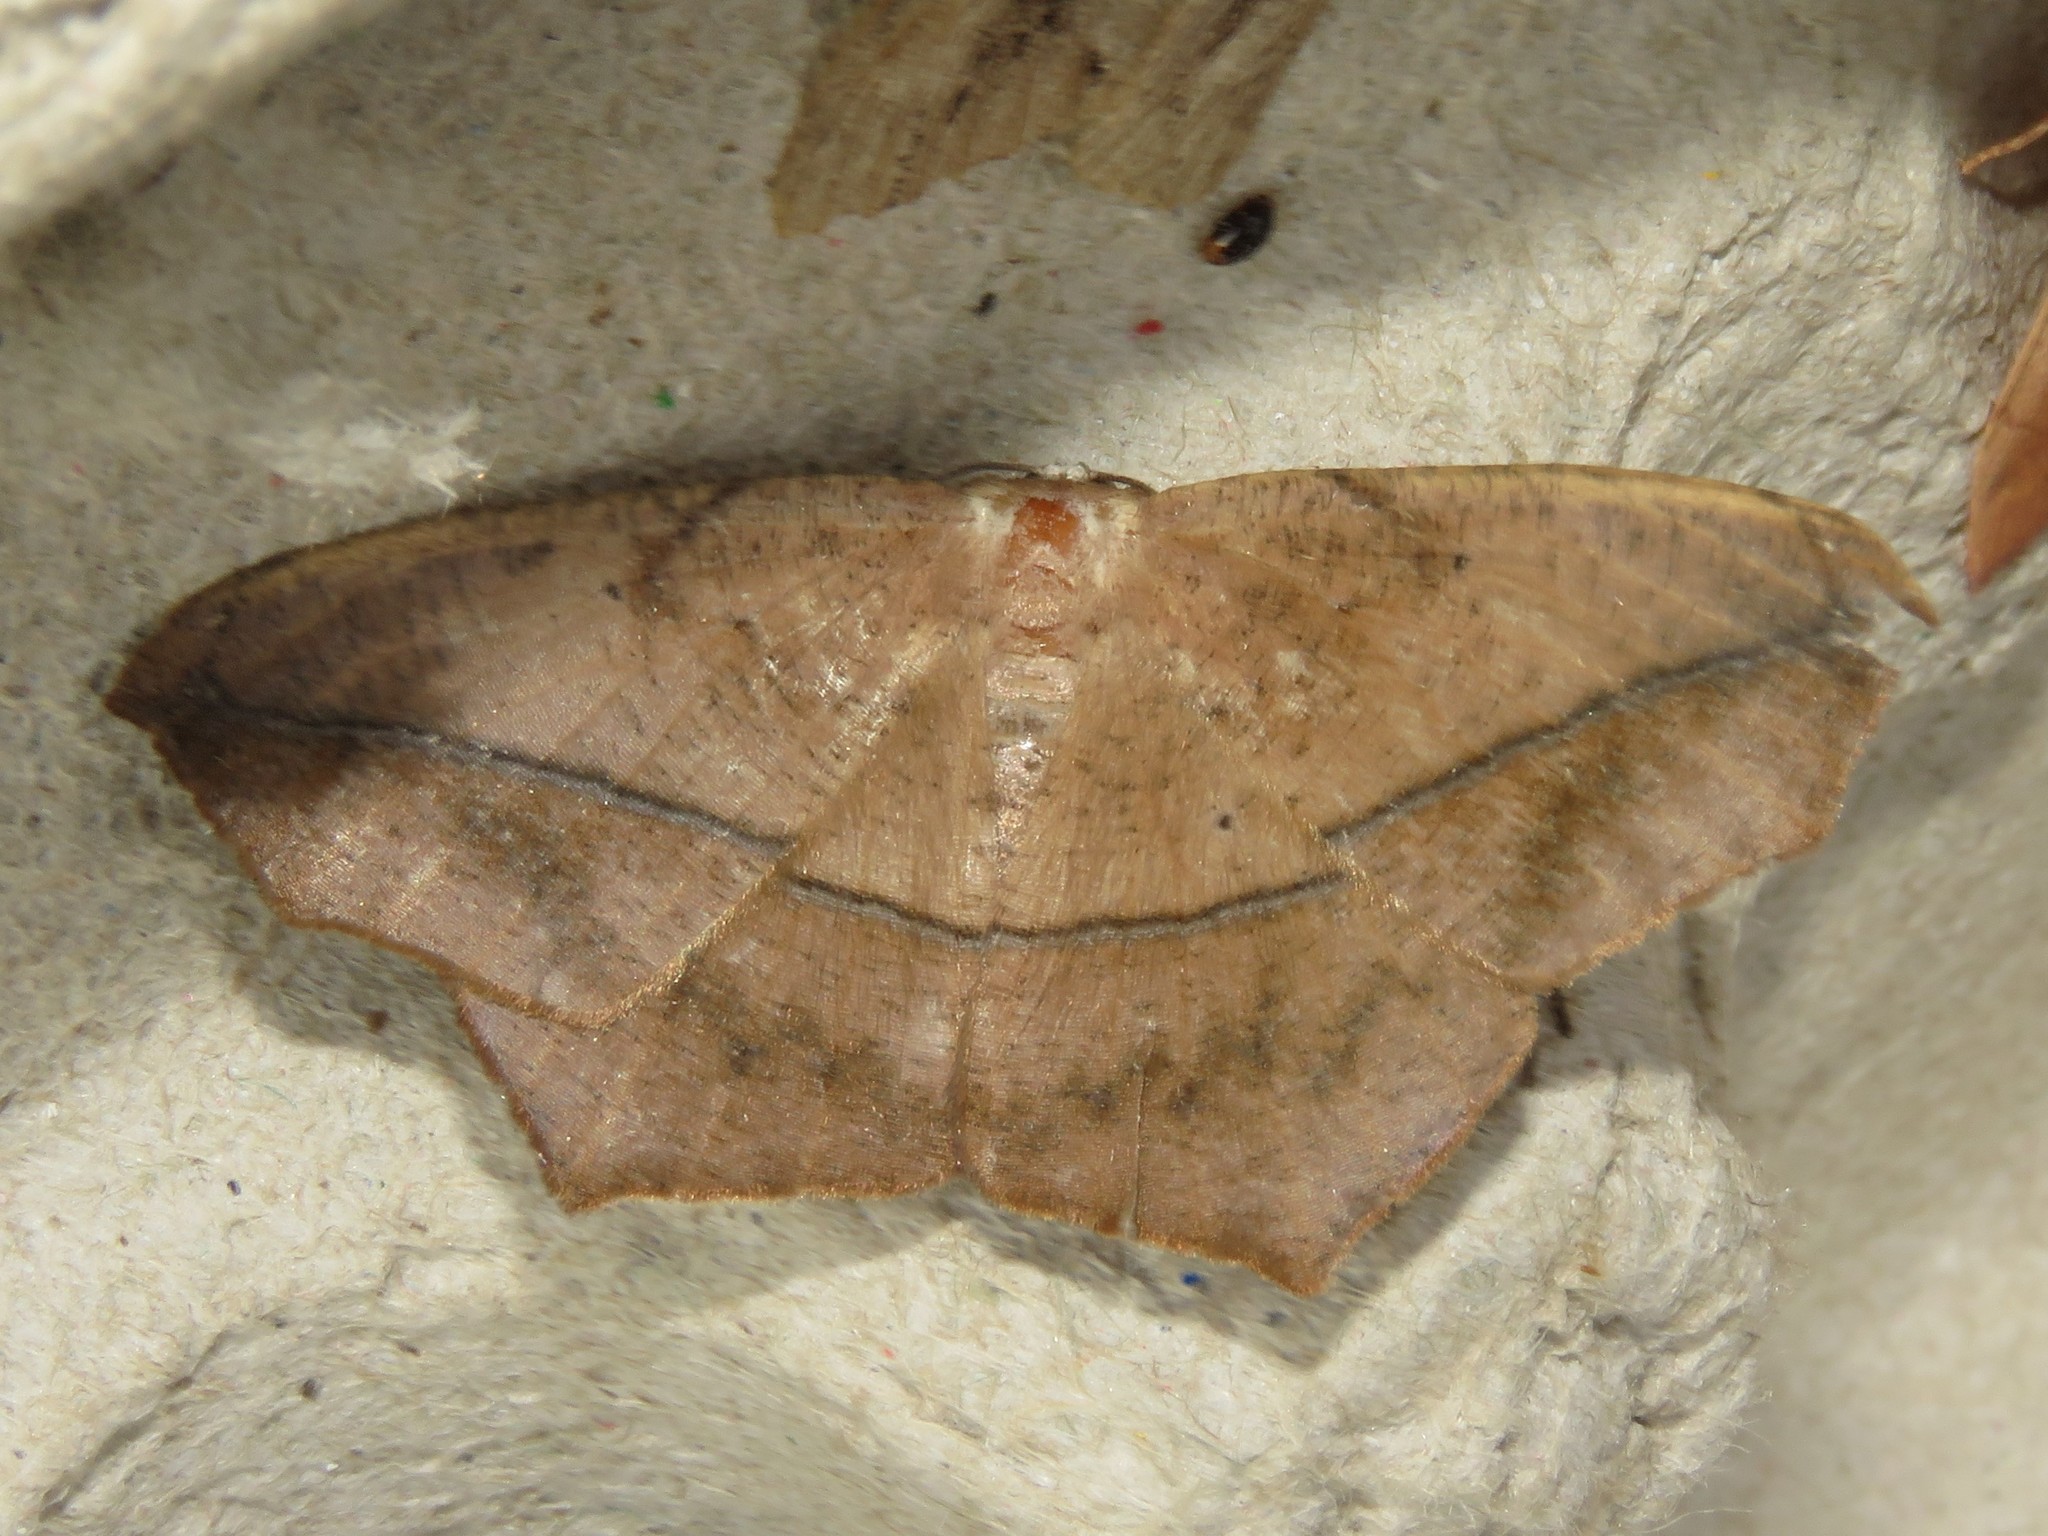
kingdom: Animalia
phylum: Arthropoda
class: Insecta
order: Lepidoptera
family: Geometridae
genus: Prochoerodes
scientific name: Prochoerodes lineola
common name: Large maple spanworm
